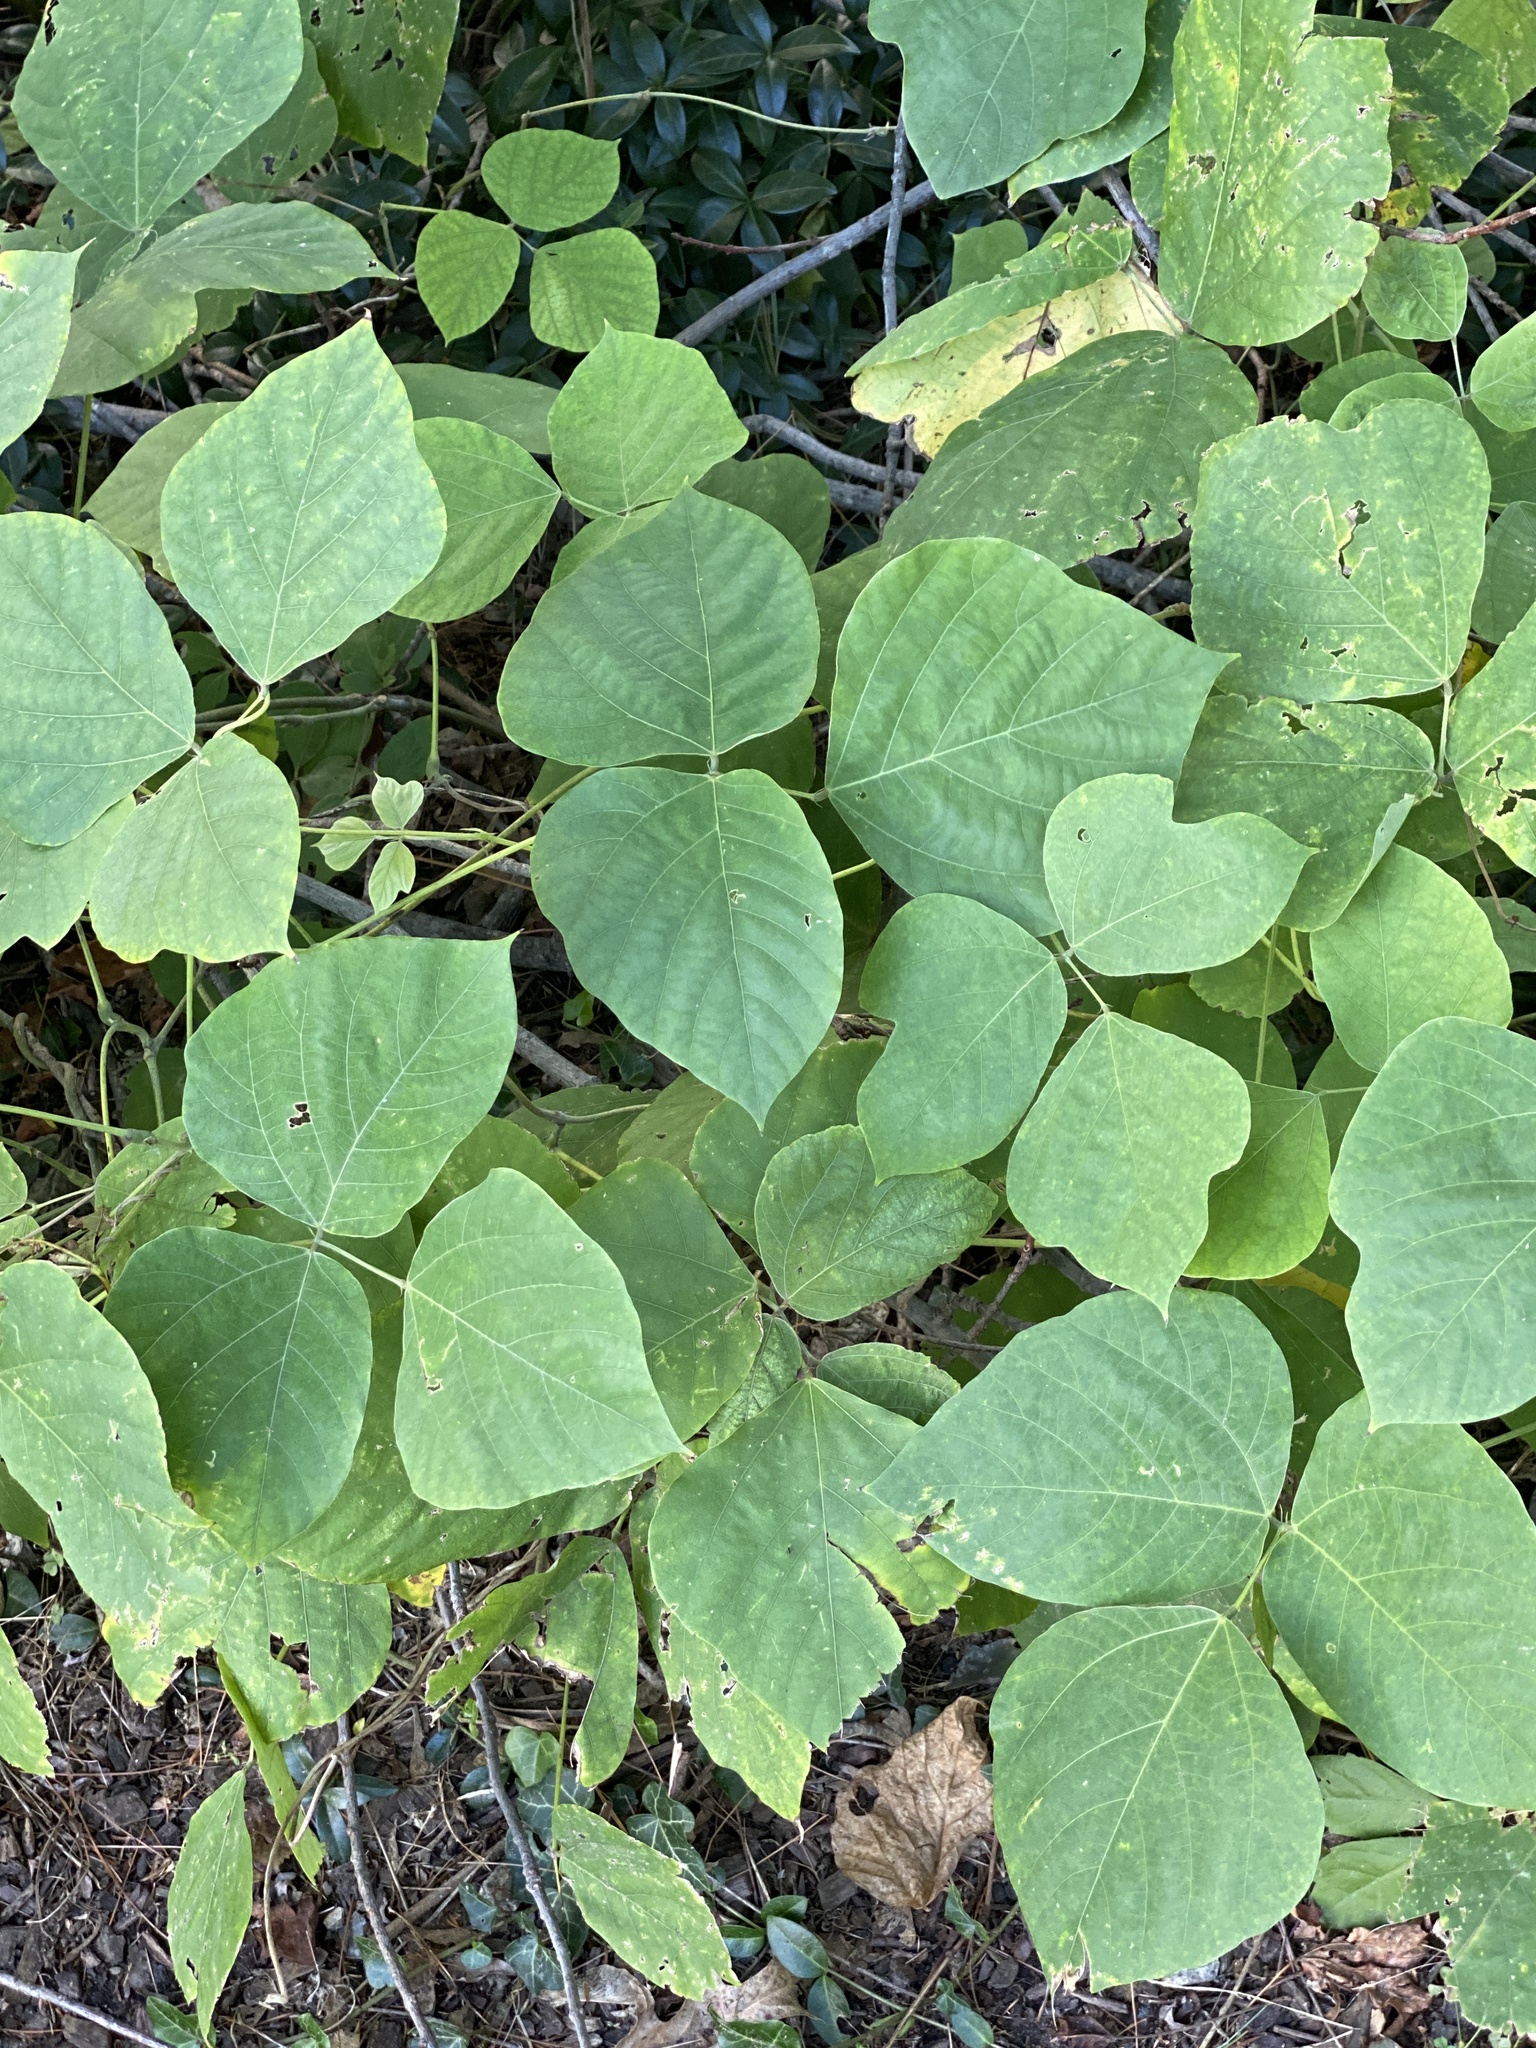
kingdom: Plantae
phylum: Tracheophyta
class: Magnoliopsida
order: Fabales
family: Fabaceae
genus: Pueraria
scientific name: Pueraria montana
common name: Kudzu
